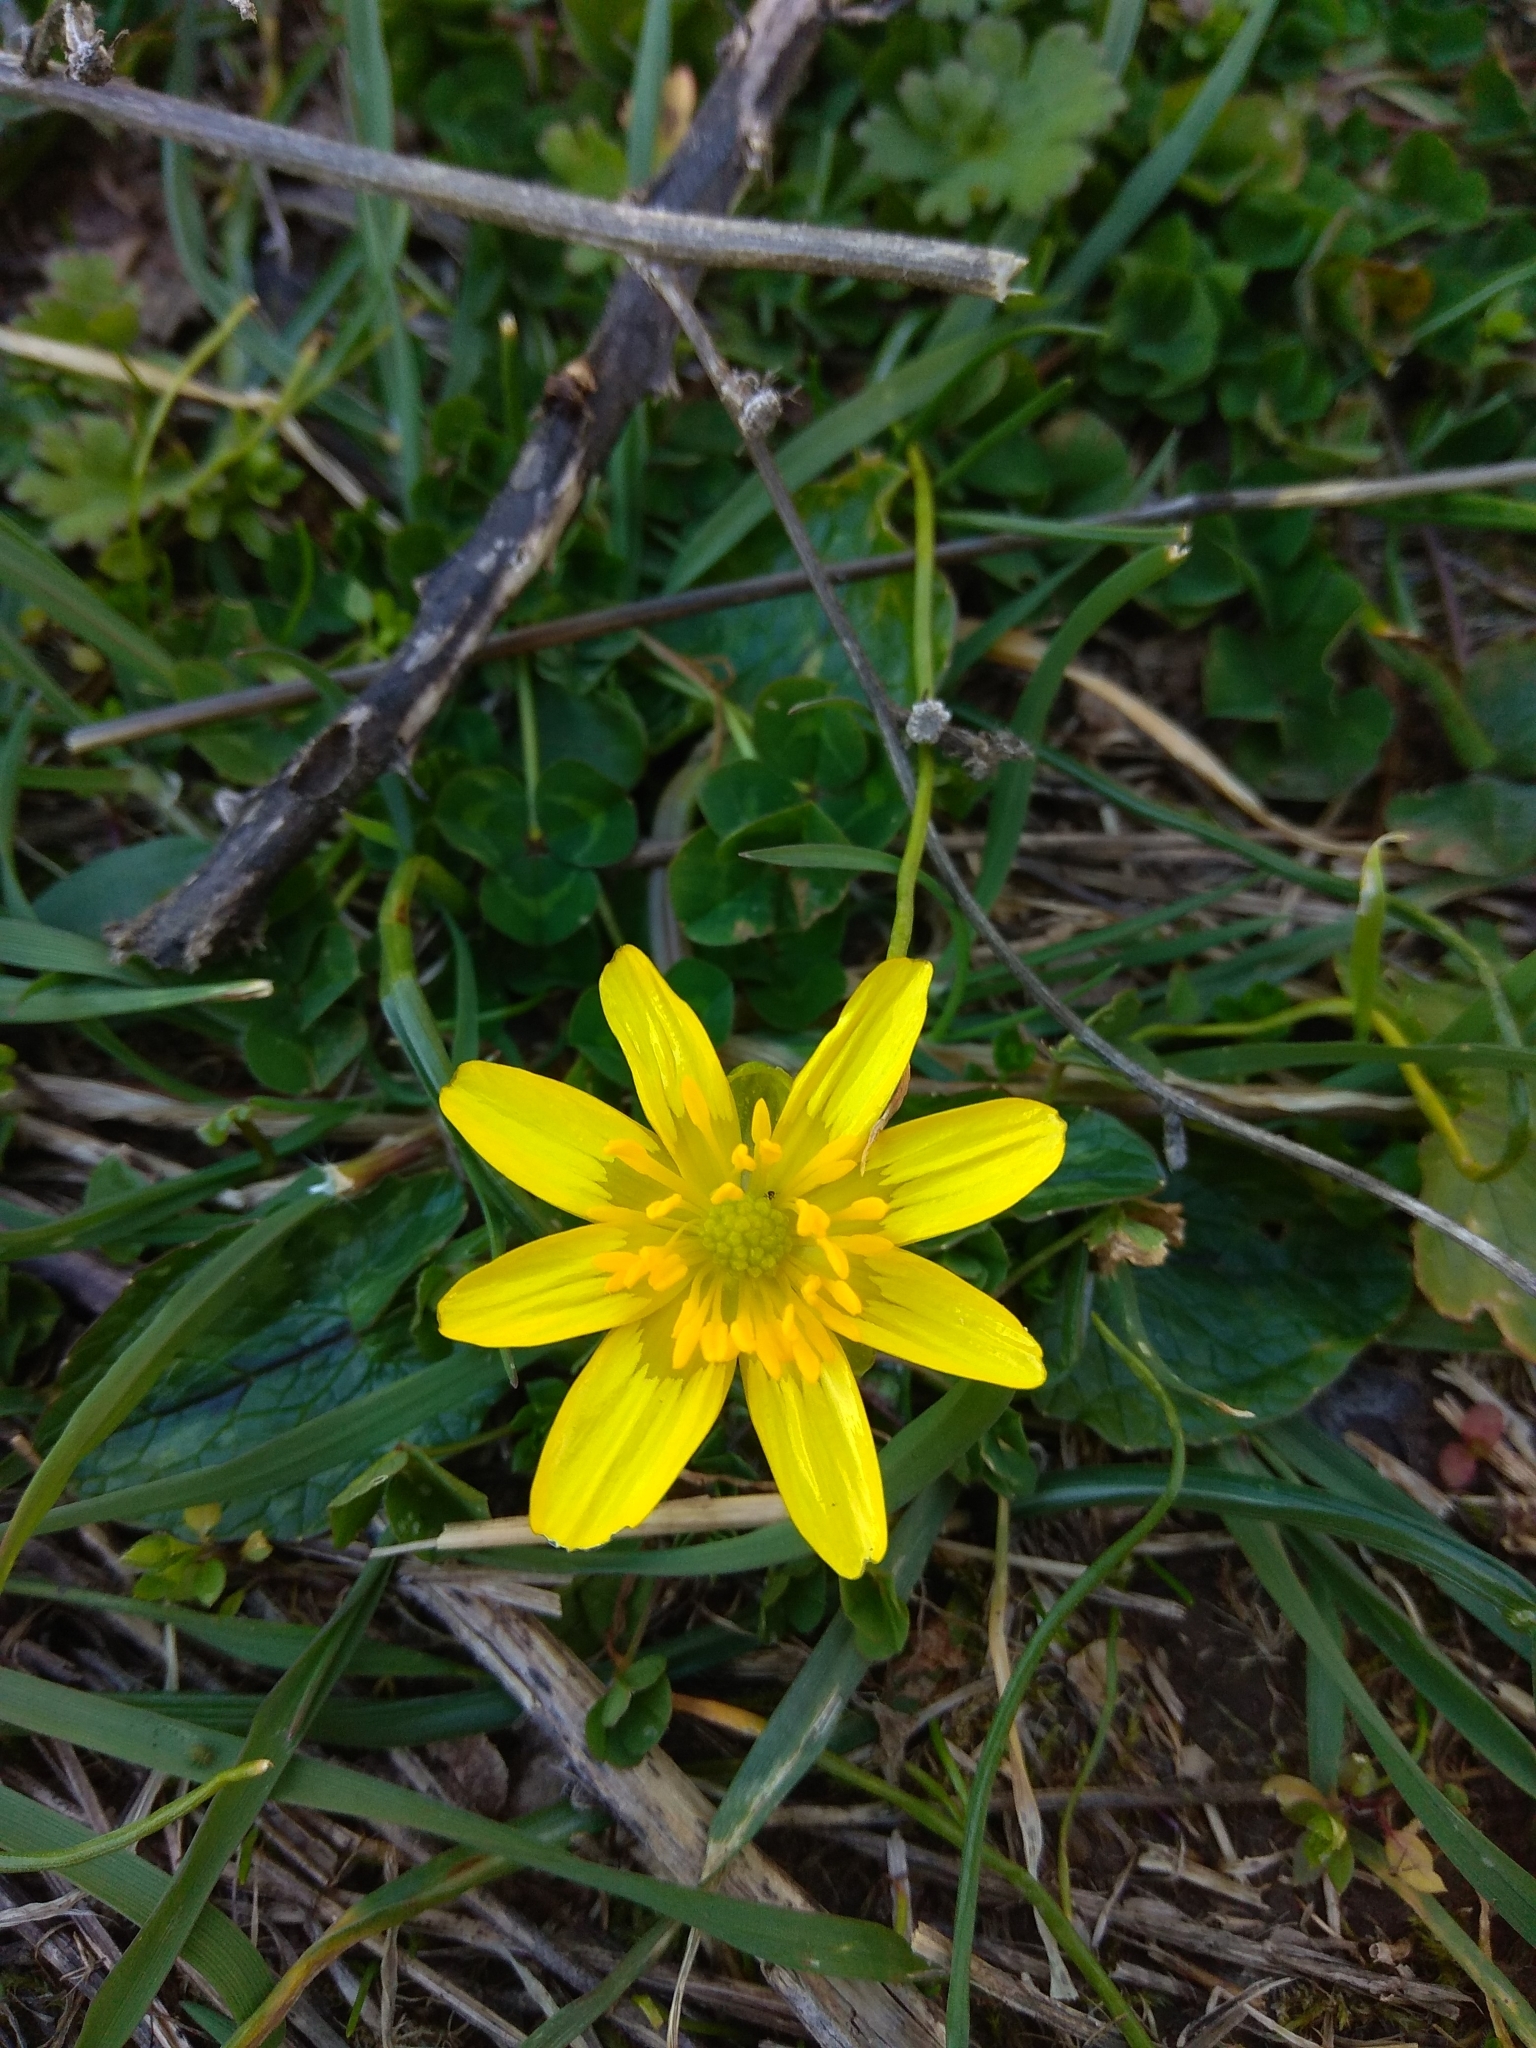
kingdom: Plantae
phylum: Tracheophyta
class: Magnoliopsida
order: Ranunculales
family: Ranunculaceae
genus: Ficaria
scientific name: Ficaria verna
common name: Lesser celandine
